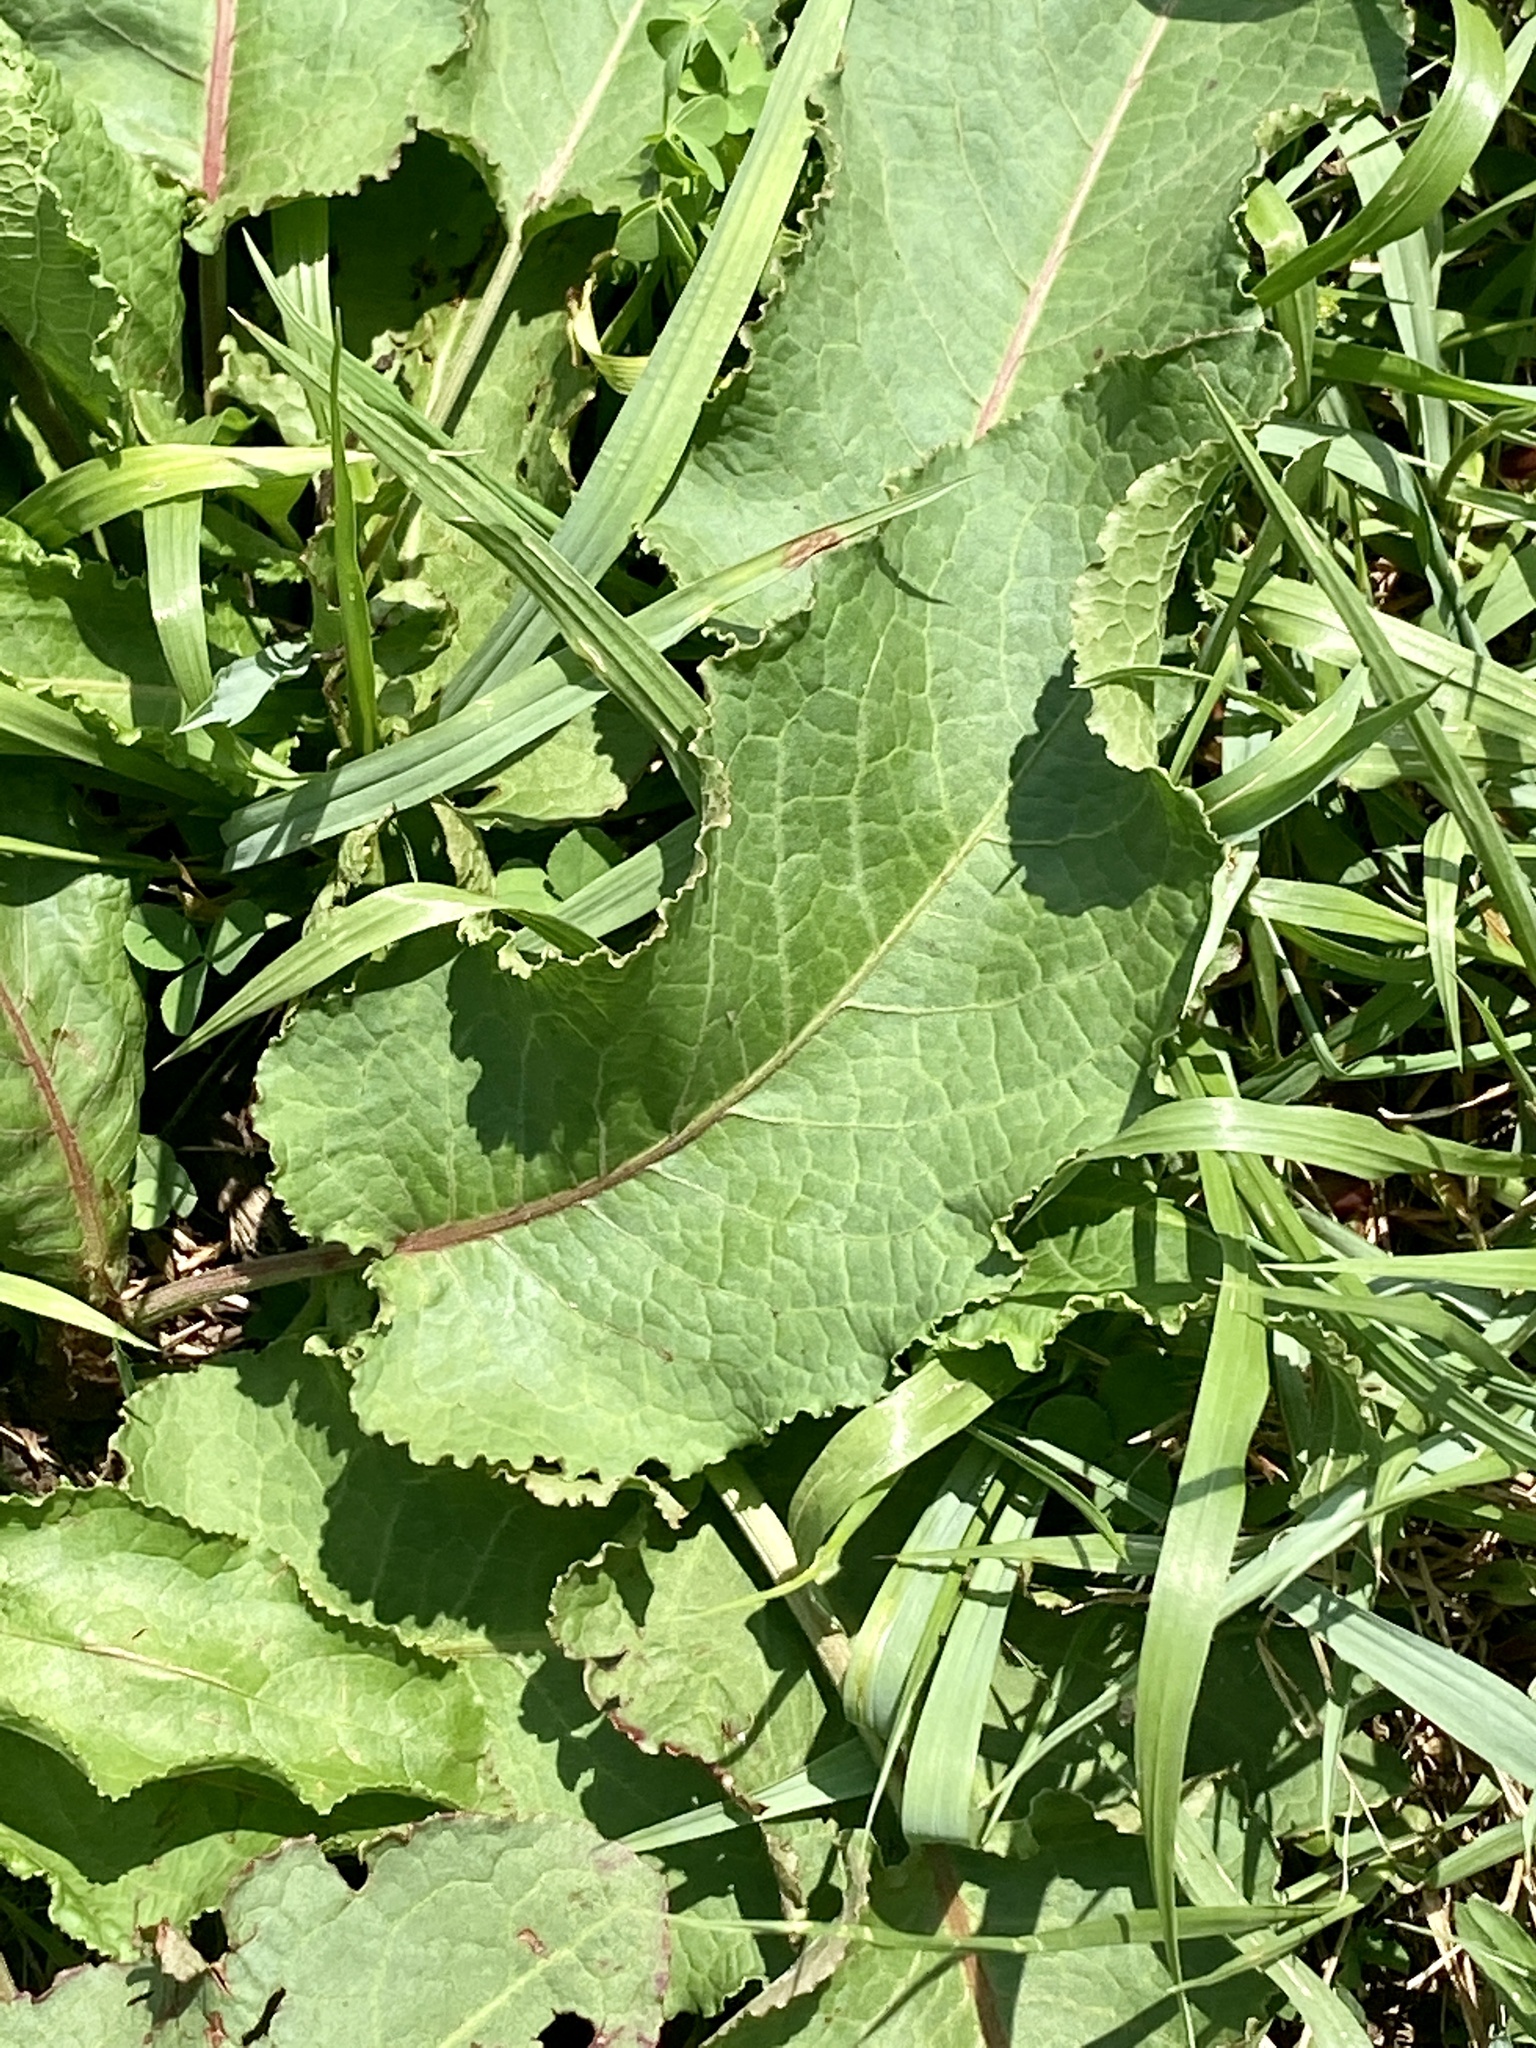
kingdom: Plantae
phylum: Tracheophyta
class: Magnoliopsida
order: Caryophyllales
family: Polygonaceae
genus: Rumex
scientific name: Rumex obtusifolius
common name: Bitter dock
